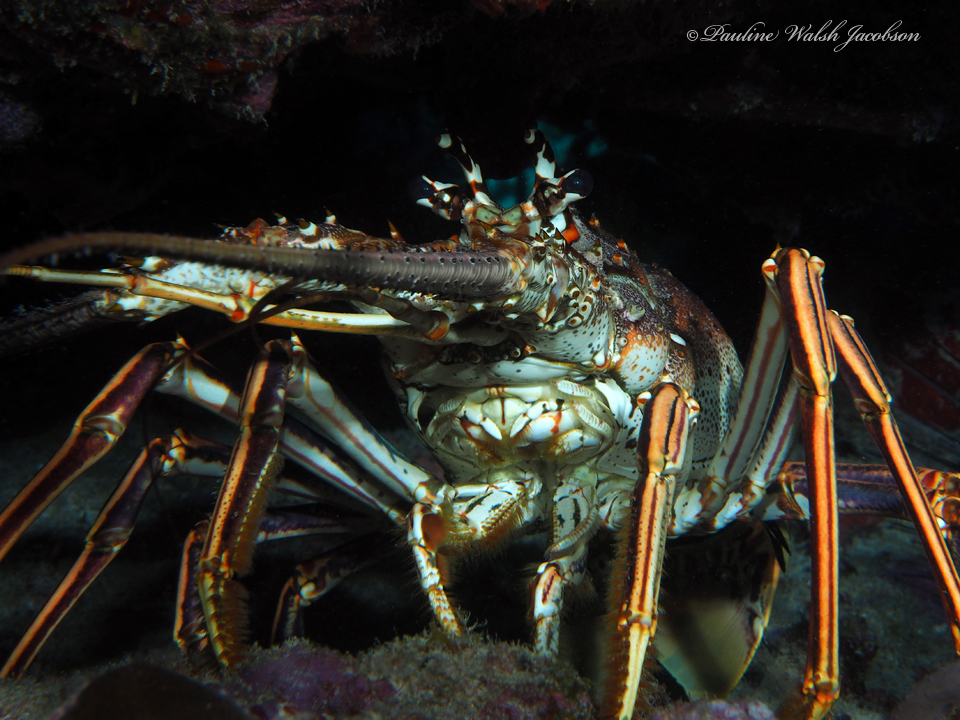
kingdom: Animalia
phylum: Arthropoda
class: Malacostraca
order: Decapoda
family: Palinuridae
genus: Panulirus
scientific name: Panulirus argus
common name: Caribbean spiny lobster
